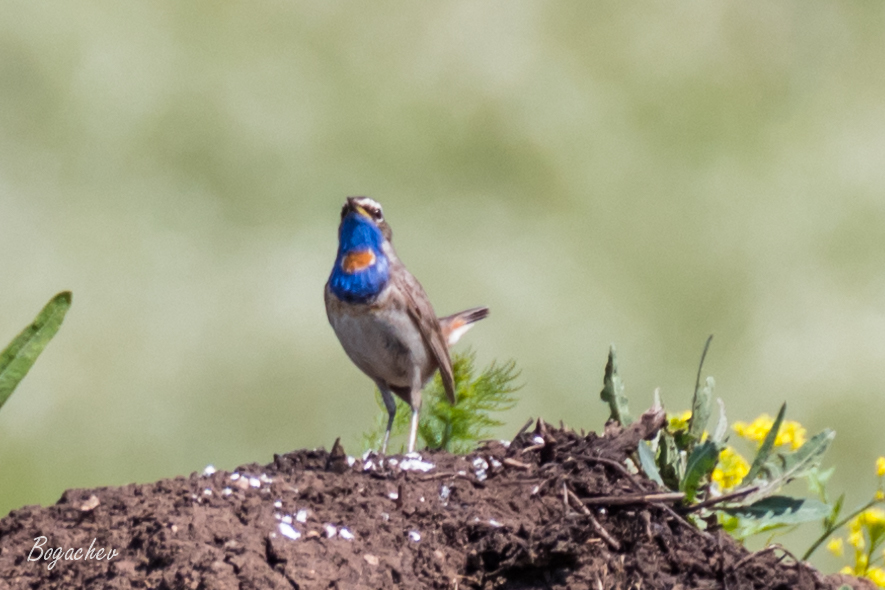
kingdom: Animalia
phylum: Chordata
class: Aves
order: Passeriformes
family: Muscicapidae
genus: Luscinia
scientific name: Luscinia svecica
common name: Bluethroat
